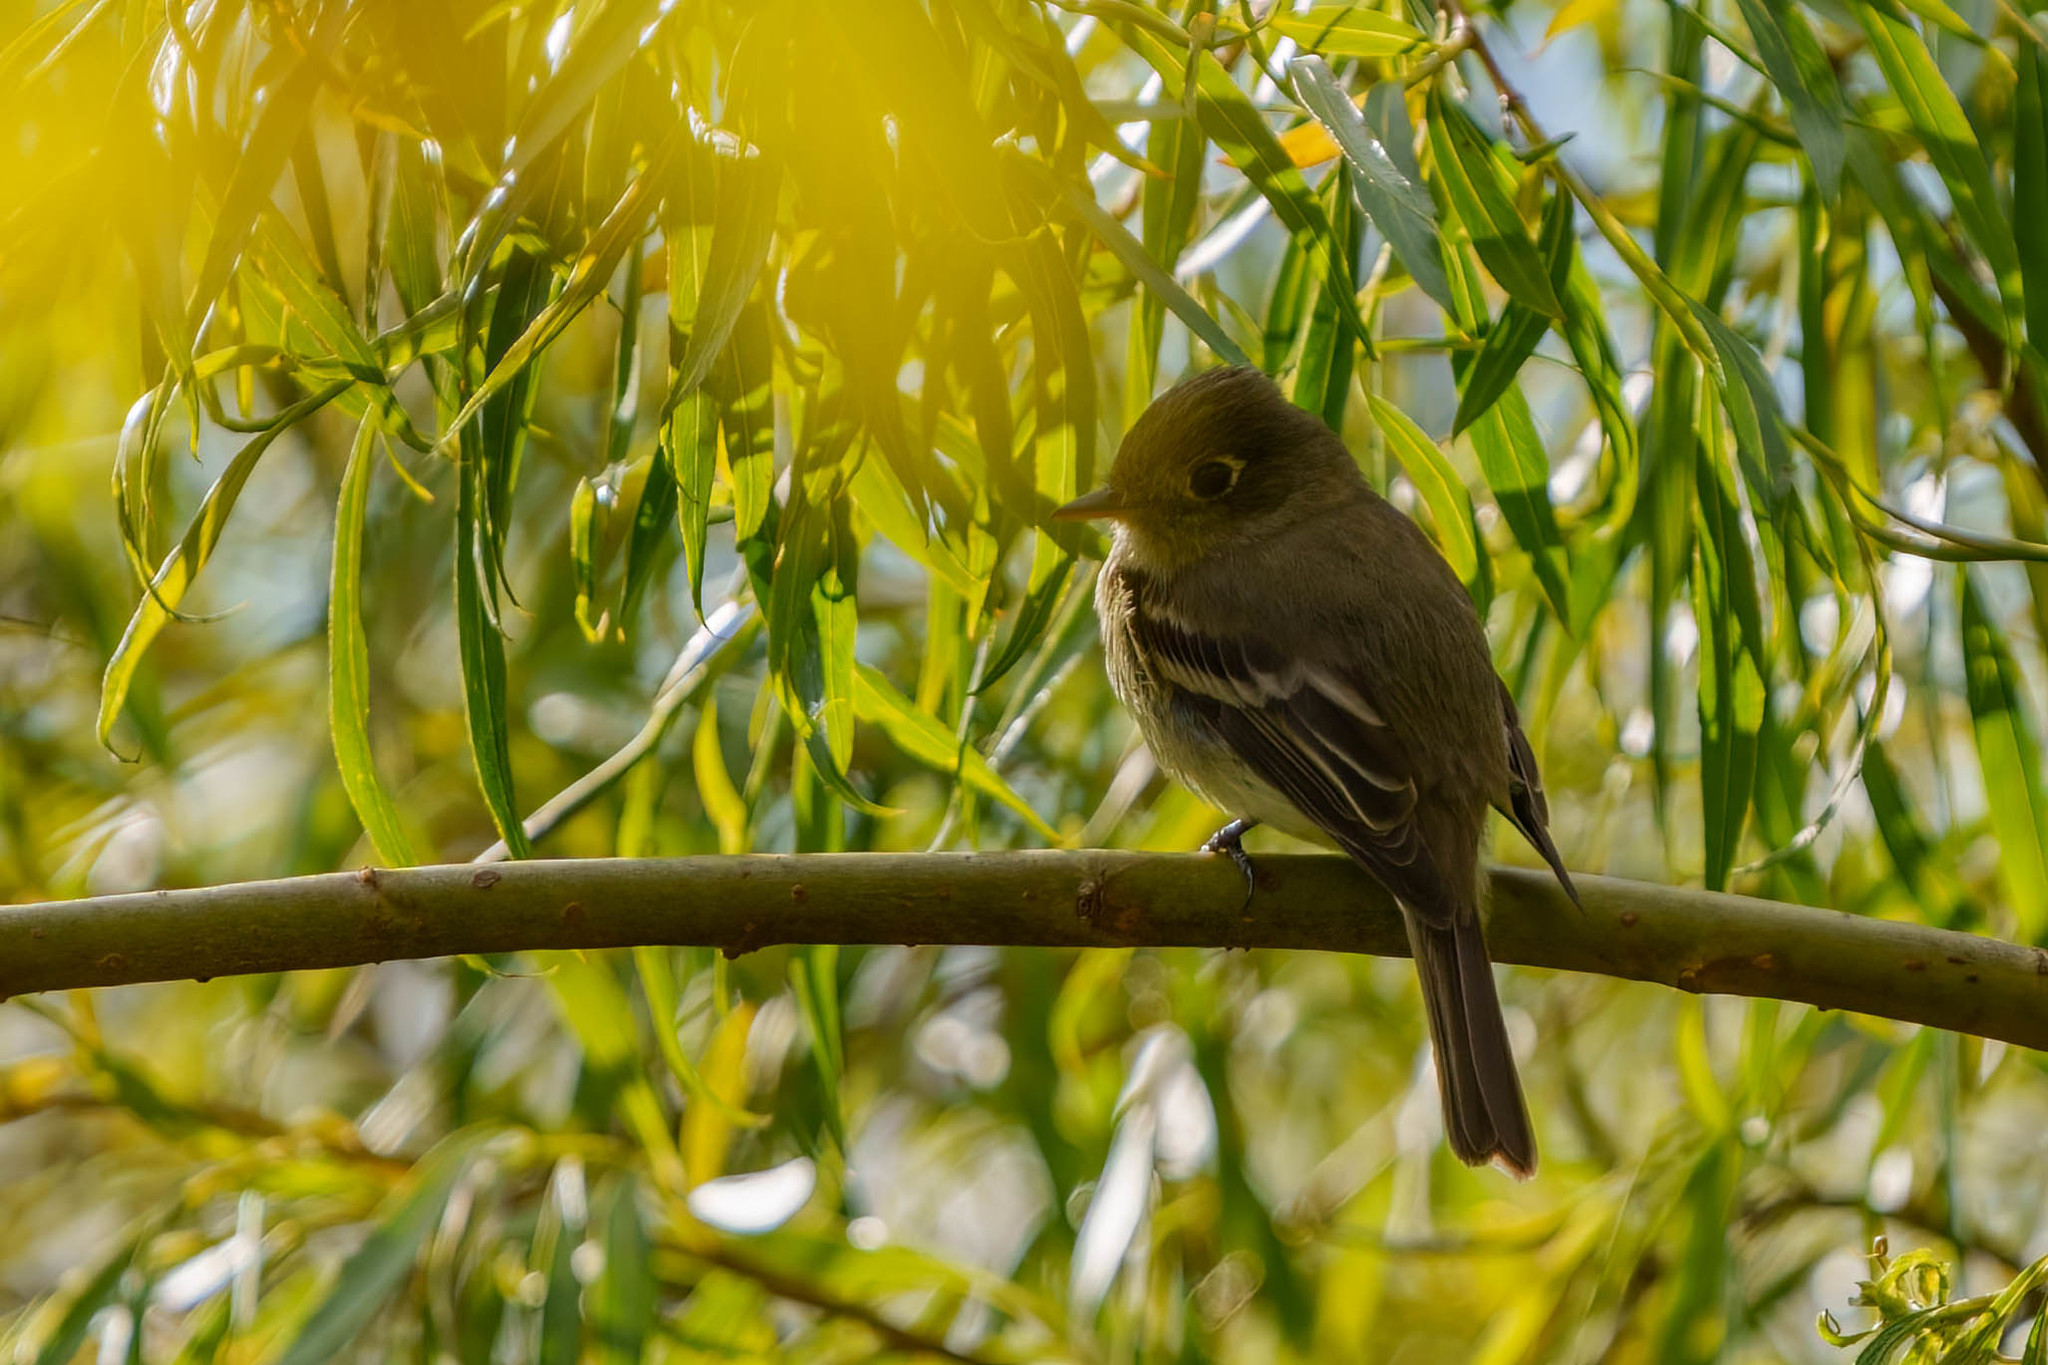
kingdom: Animalia
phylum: Chordata
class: Aves
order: Passeriformes
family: Tyrannidae
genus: Empidonax
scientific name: Empidonax difficilis
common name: Pacific-slope flycatcher
